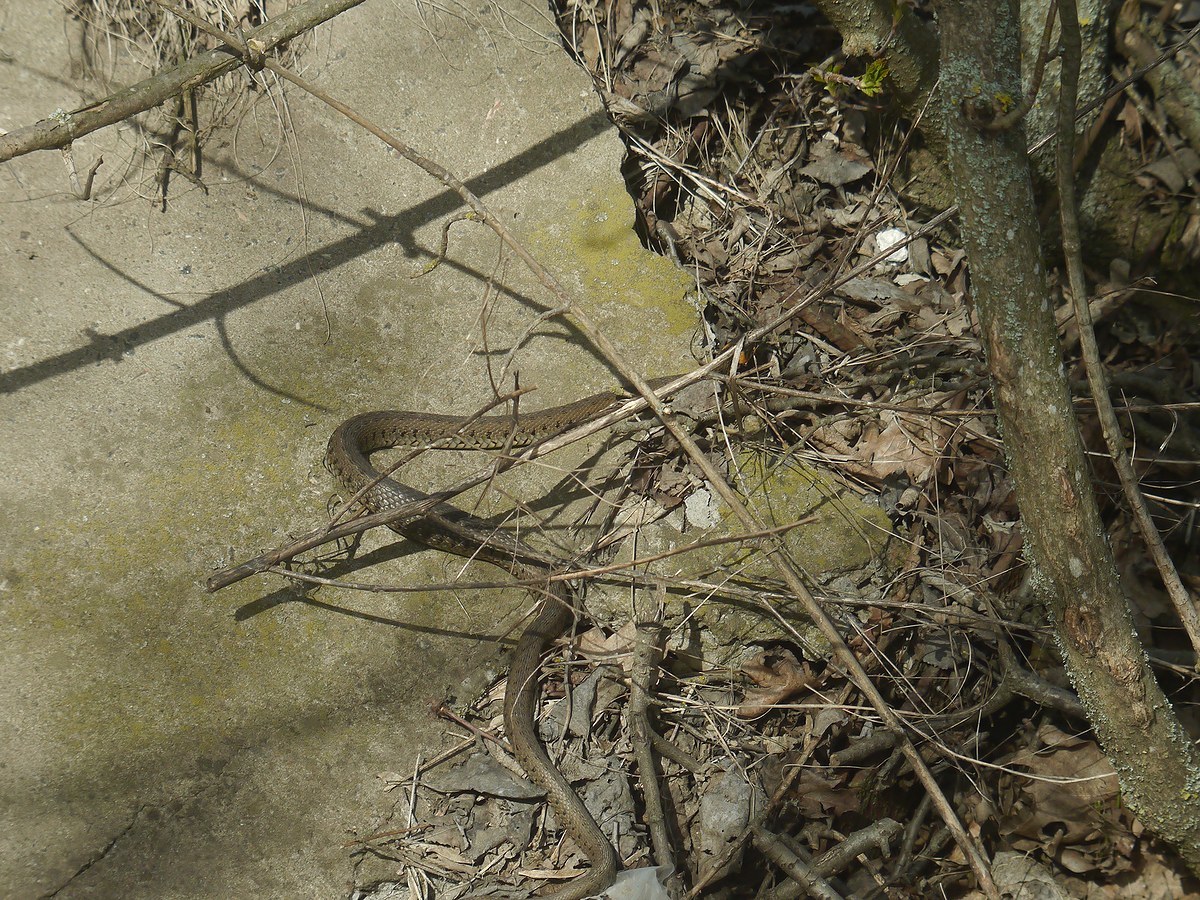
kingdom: Animalia
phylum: Chordata
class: Squamata
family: Colubridae
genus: Natrix
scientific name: Natrix natrix
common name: Grass snake
